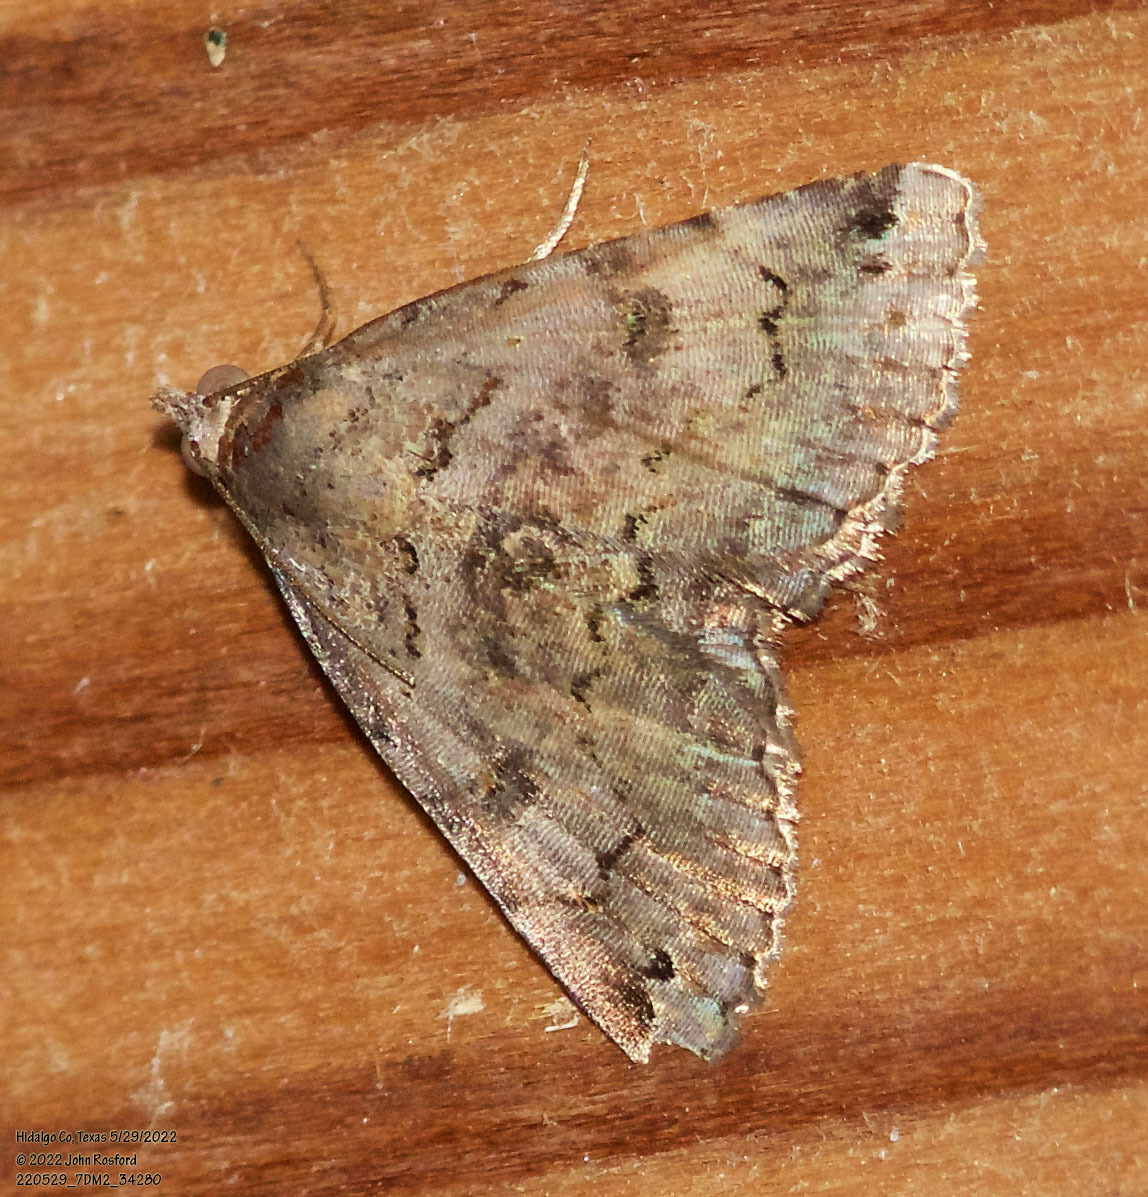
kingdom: Animalia
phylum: Arthropoda
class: Insecta
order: Lepidoptera
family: Erebidae
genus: Toxonprucha
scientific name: Toxonprucha crudelis
